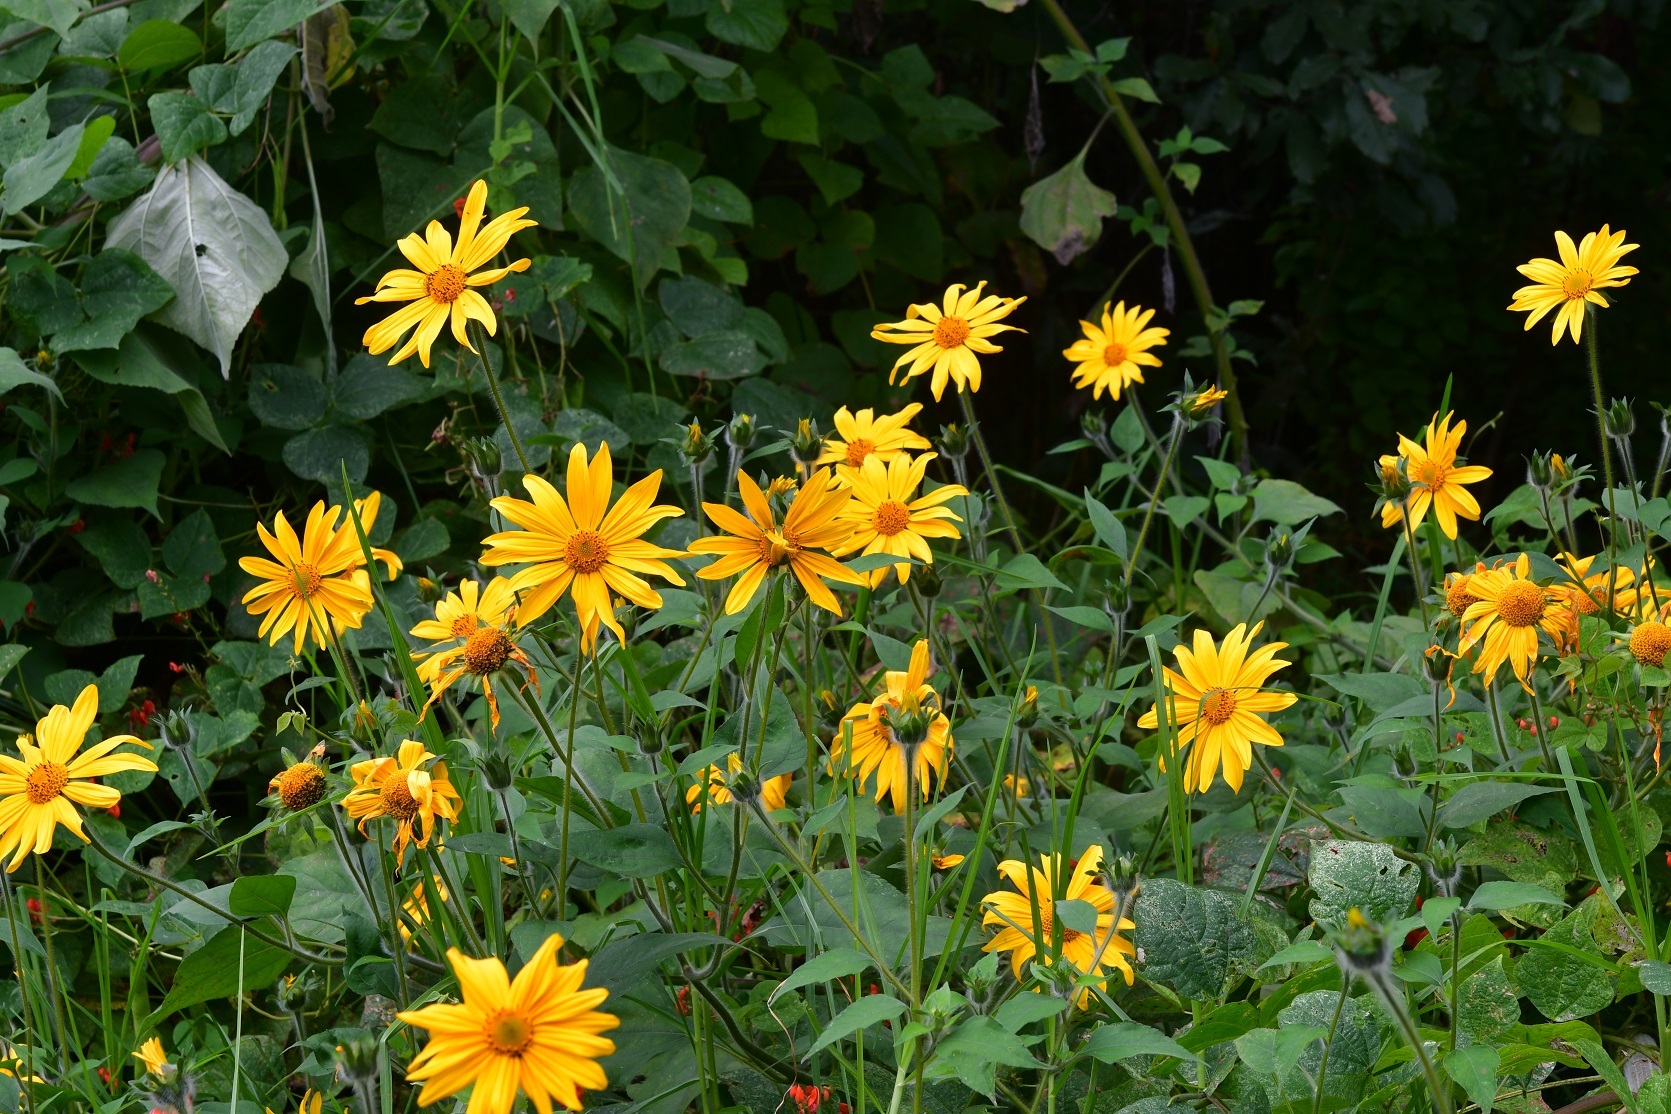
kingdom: Plantae
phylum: Tracheophyta
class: Magnoliopsida
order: Asterales
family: Asteraceae
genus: Tithonia
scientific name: Tithonia tubaeformis
